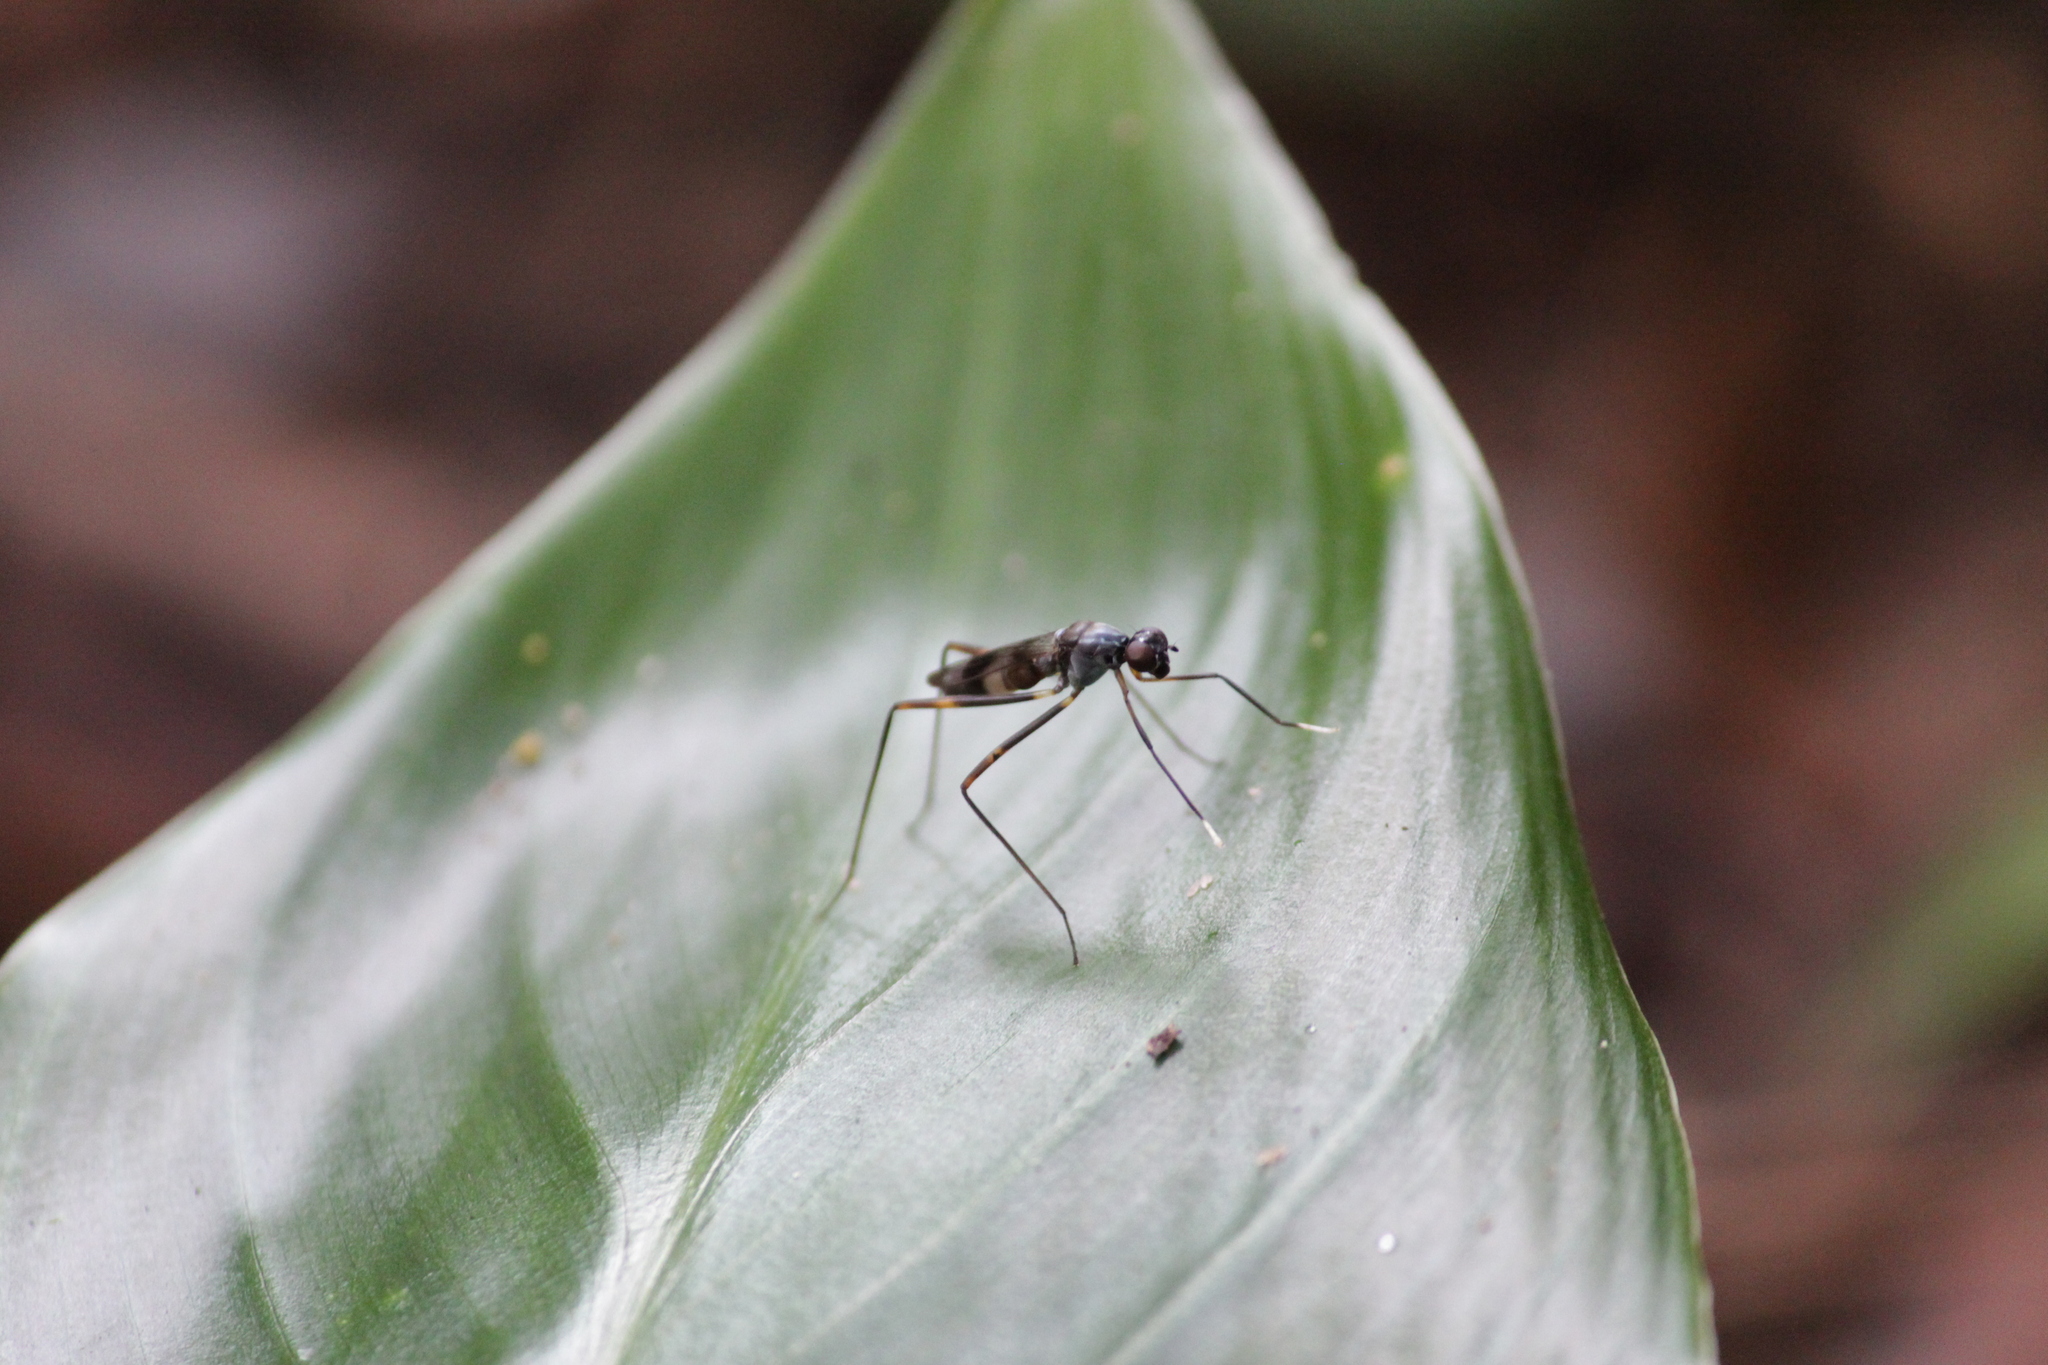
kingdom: Animalia
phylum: Arthropoda
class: Insecta
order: Diptera
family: Micropezidae
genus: Hybobata
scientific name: Hybobata
